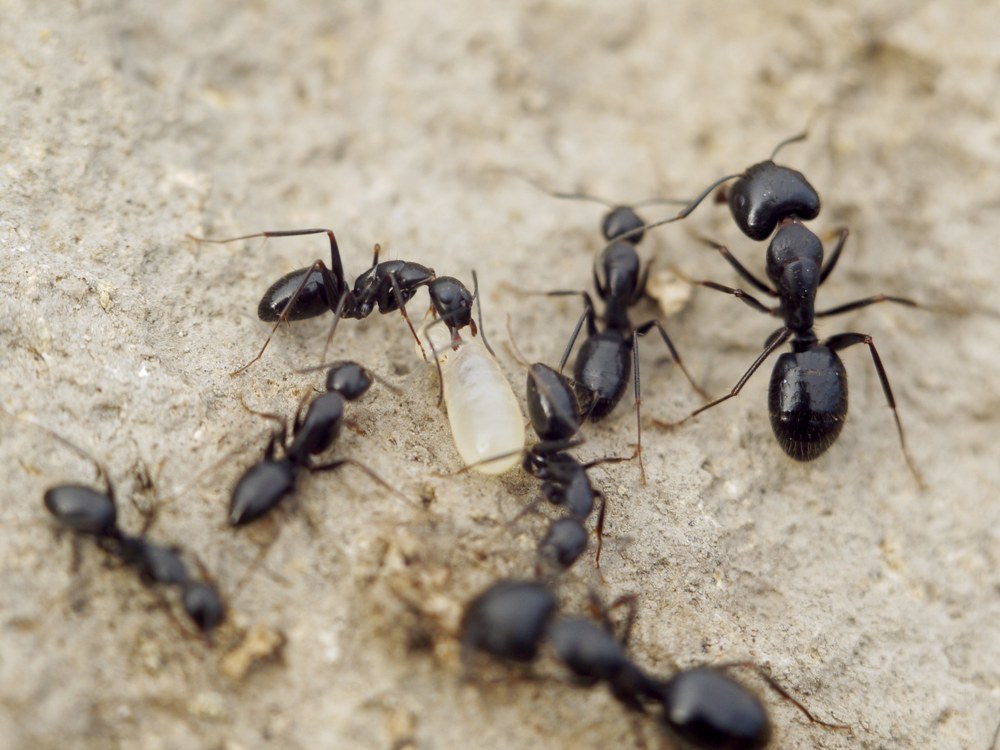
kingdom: Animalia
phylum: Arthropoda
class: Insecta
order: Hymenoptera
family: Formicidae
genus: Camponotus
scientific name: Camponotus aethiops
